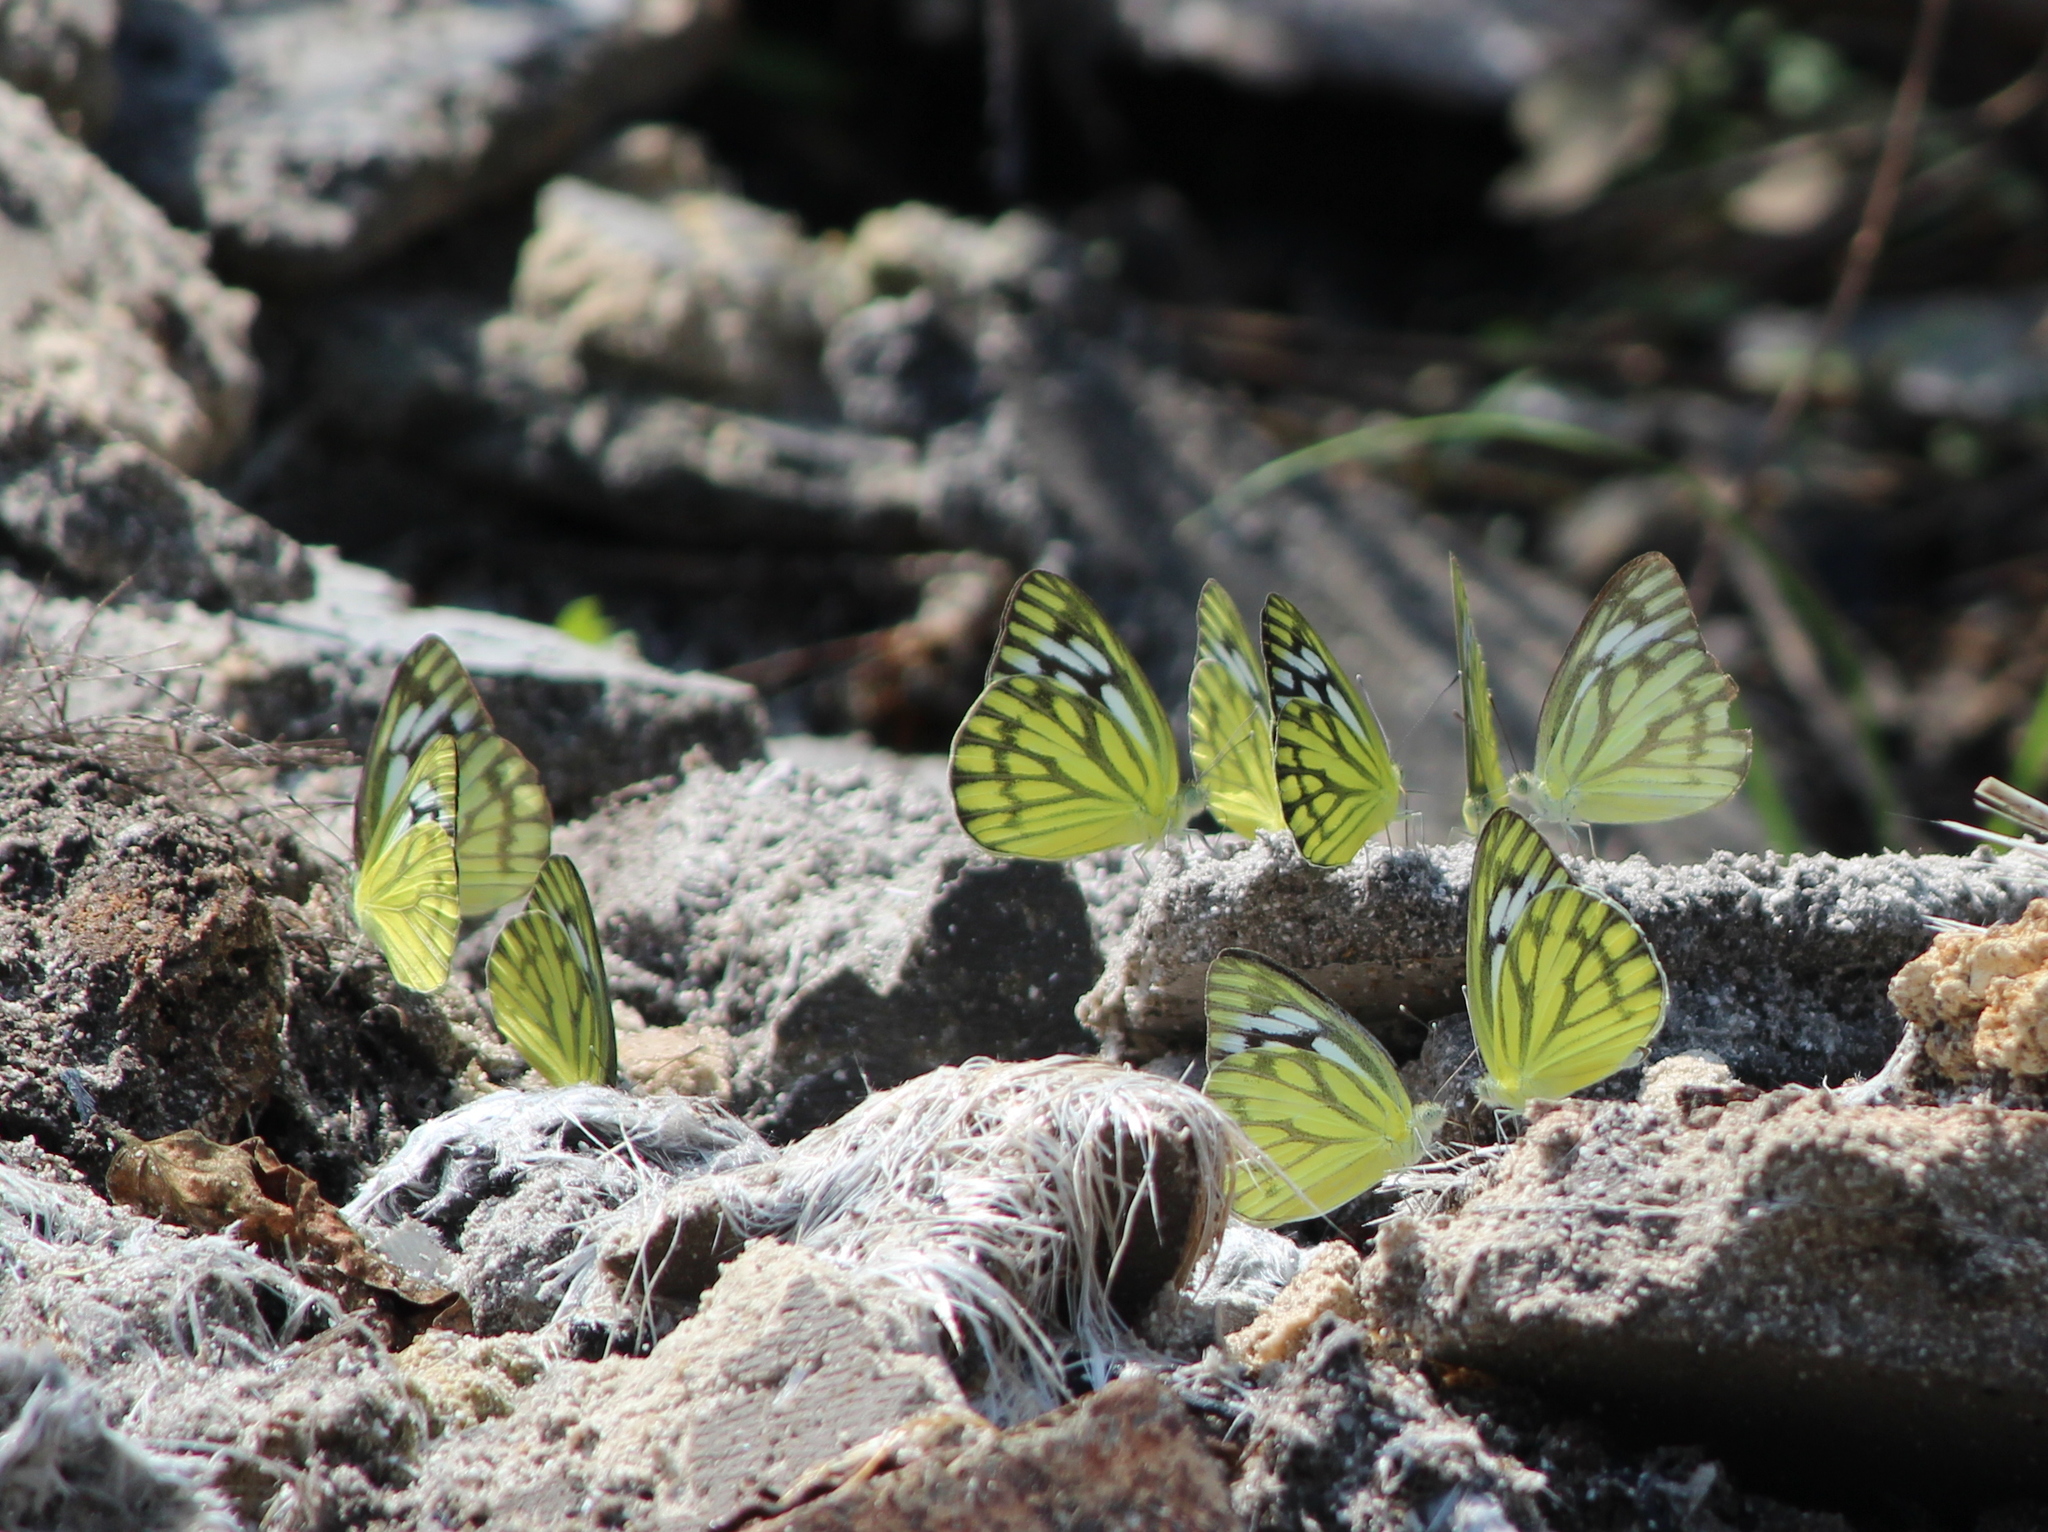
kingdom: Animalia
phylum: Arthropoda
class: Insecta
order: Lepidoptera
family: Pieridae
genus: Cepora
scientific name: Cepora nerissa
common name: Common gull
